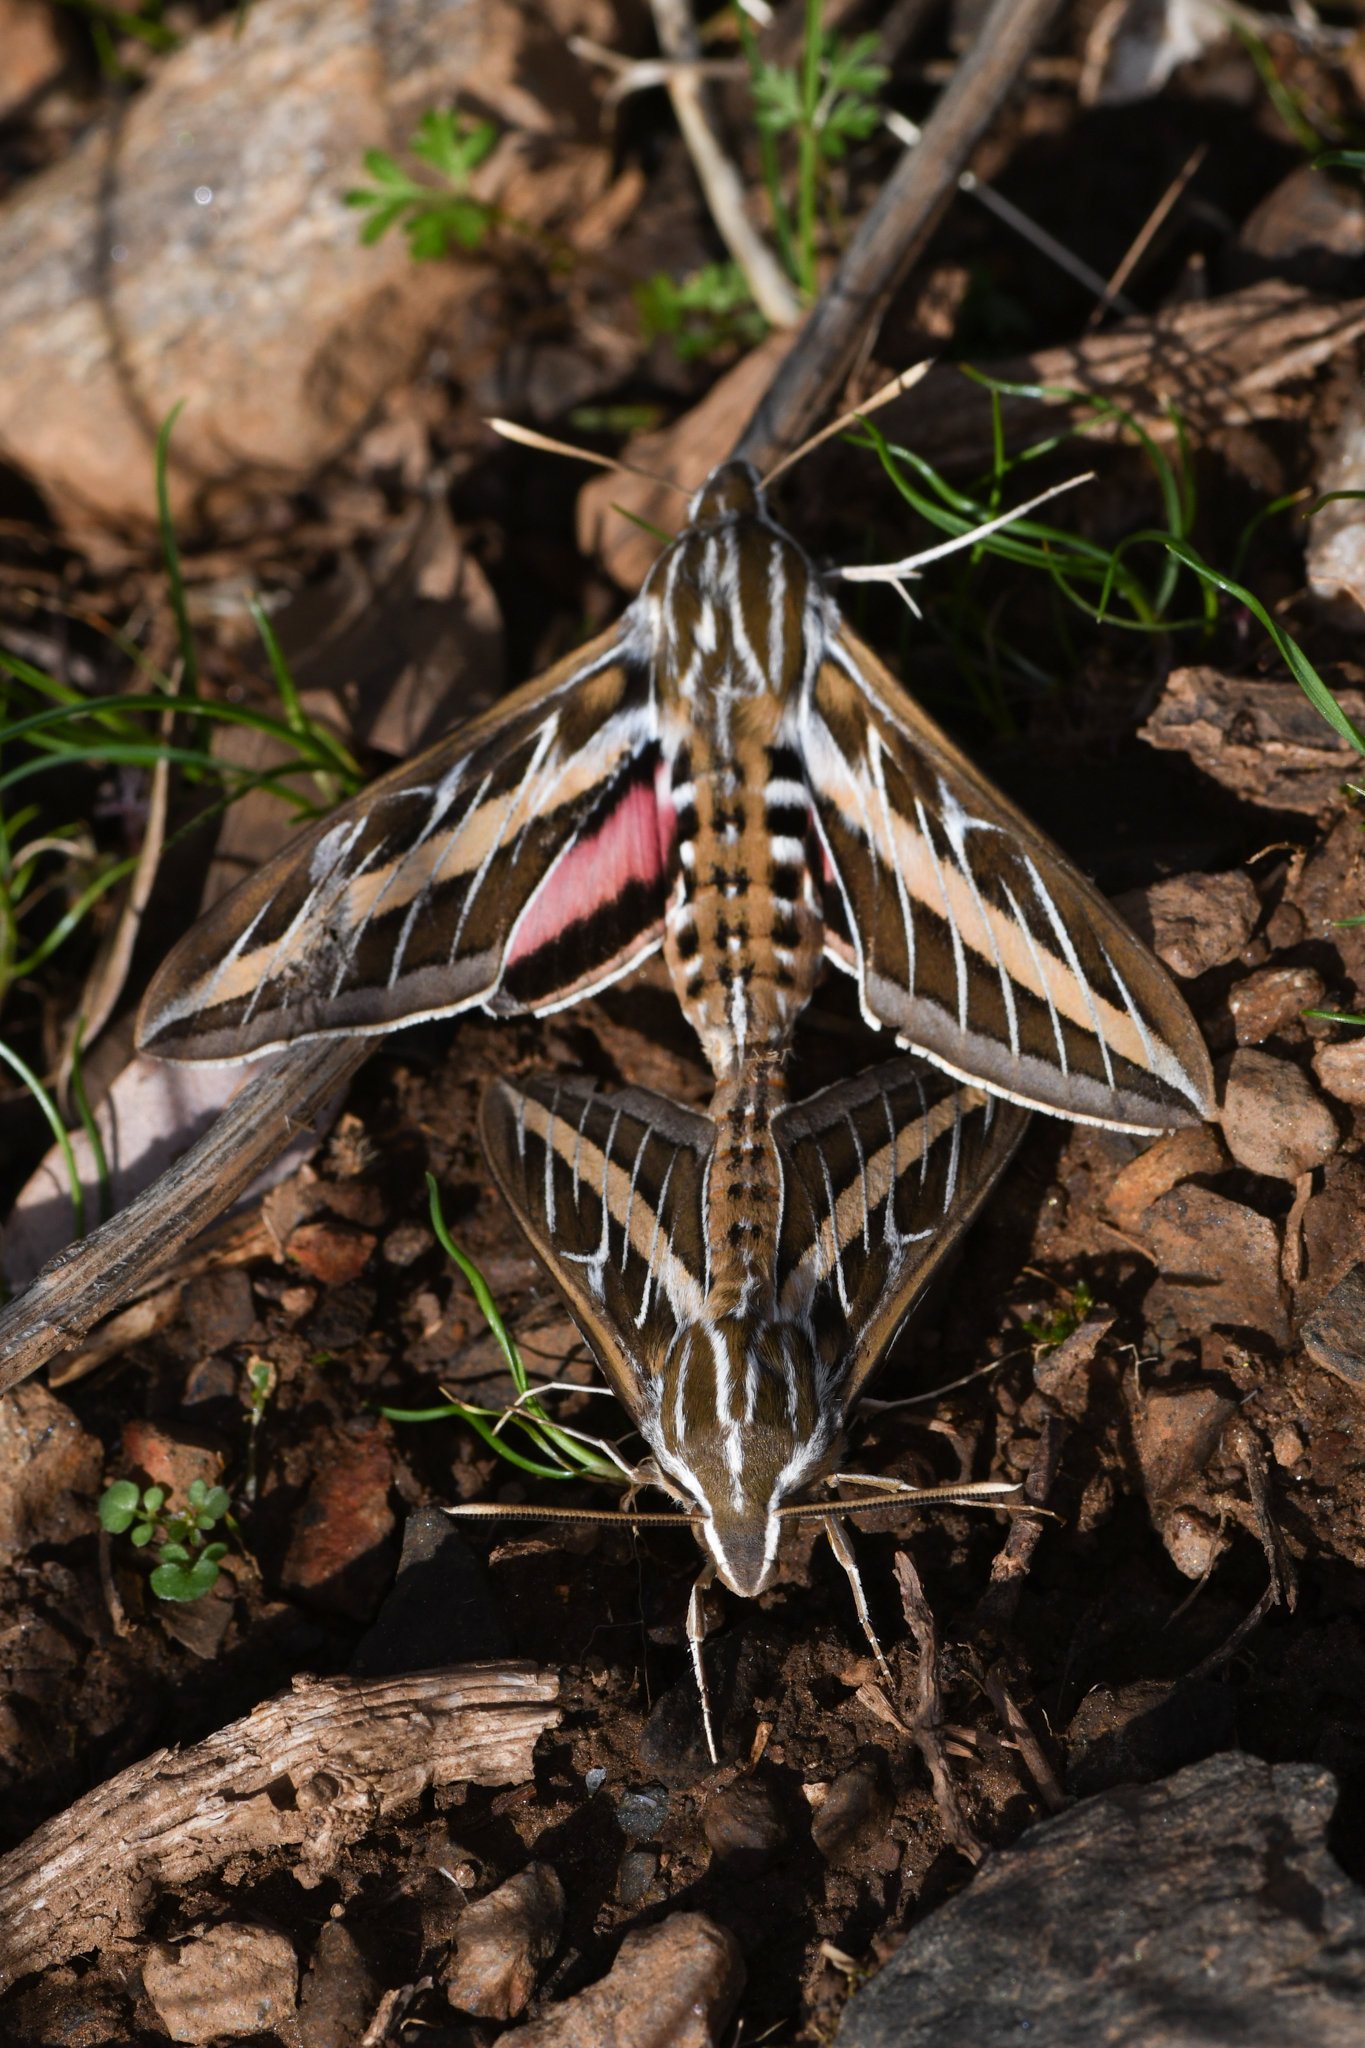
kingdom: Animalia
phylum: Arthropoda
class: Insecta
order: Lepidoptera
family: Sphingidae
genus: Hyles
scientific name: Hyles lineata
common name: White-lined sphinx
